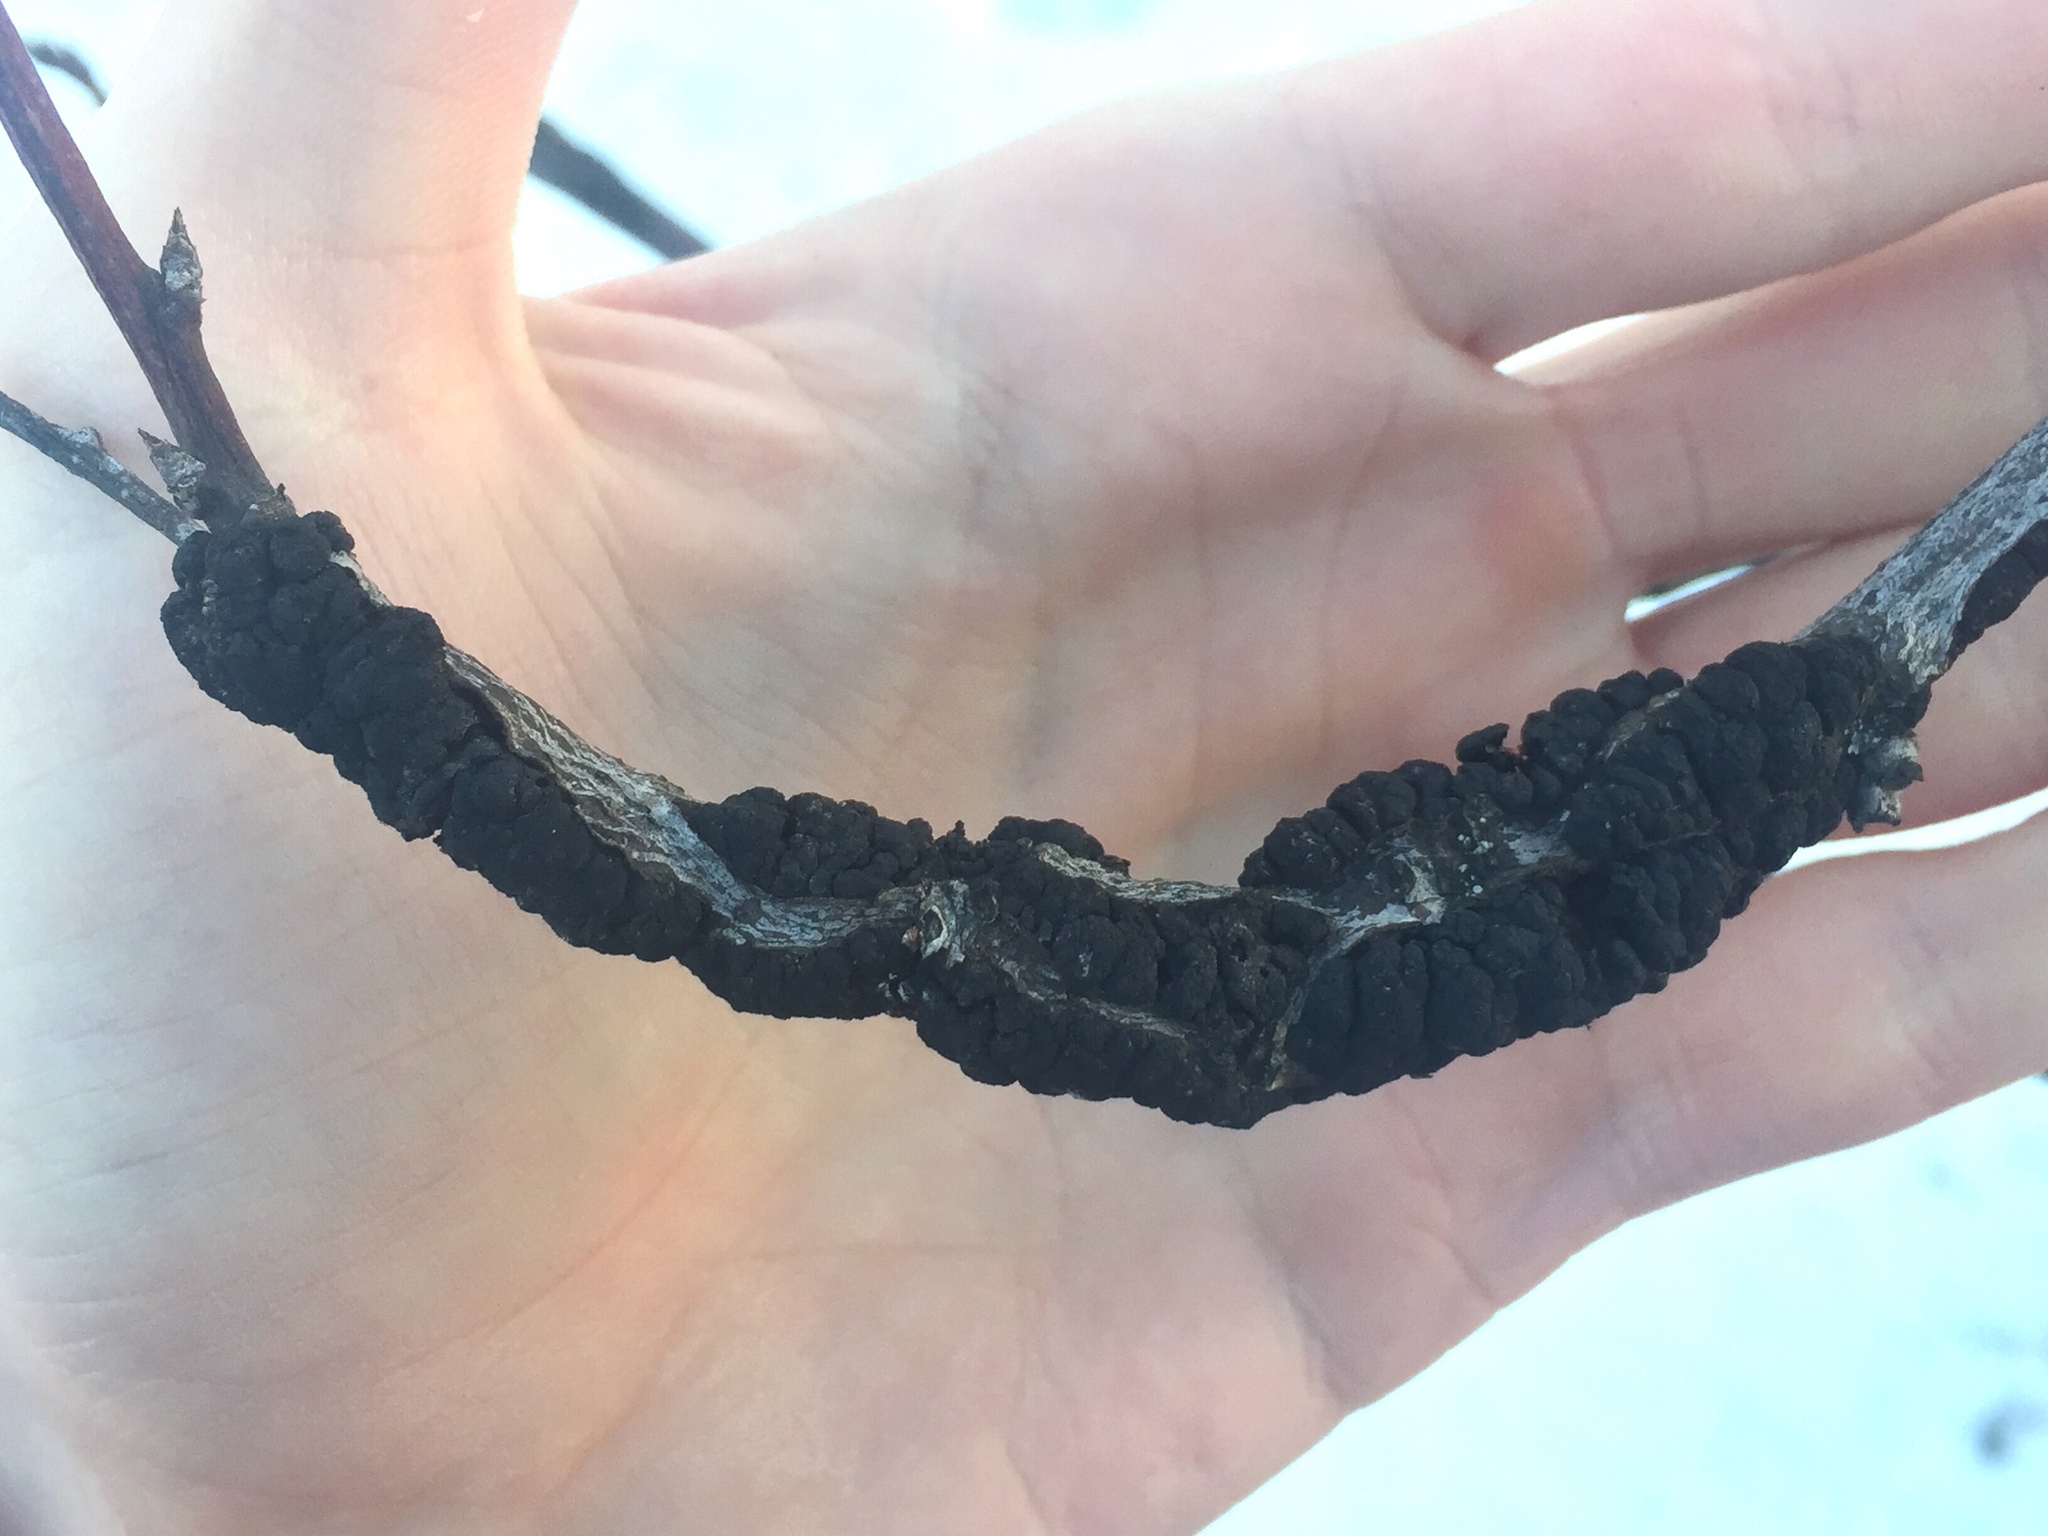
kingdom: Fungi
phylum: Ascomycota
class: Dothideomycetes
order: Venturiales
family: Venturiaceae
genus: Apiosporina
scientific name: Apiosporina morbosa
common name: Black knot
